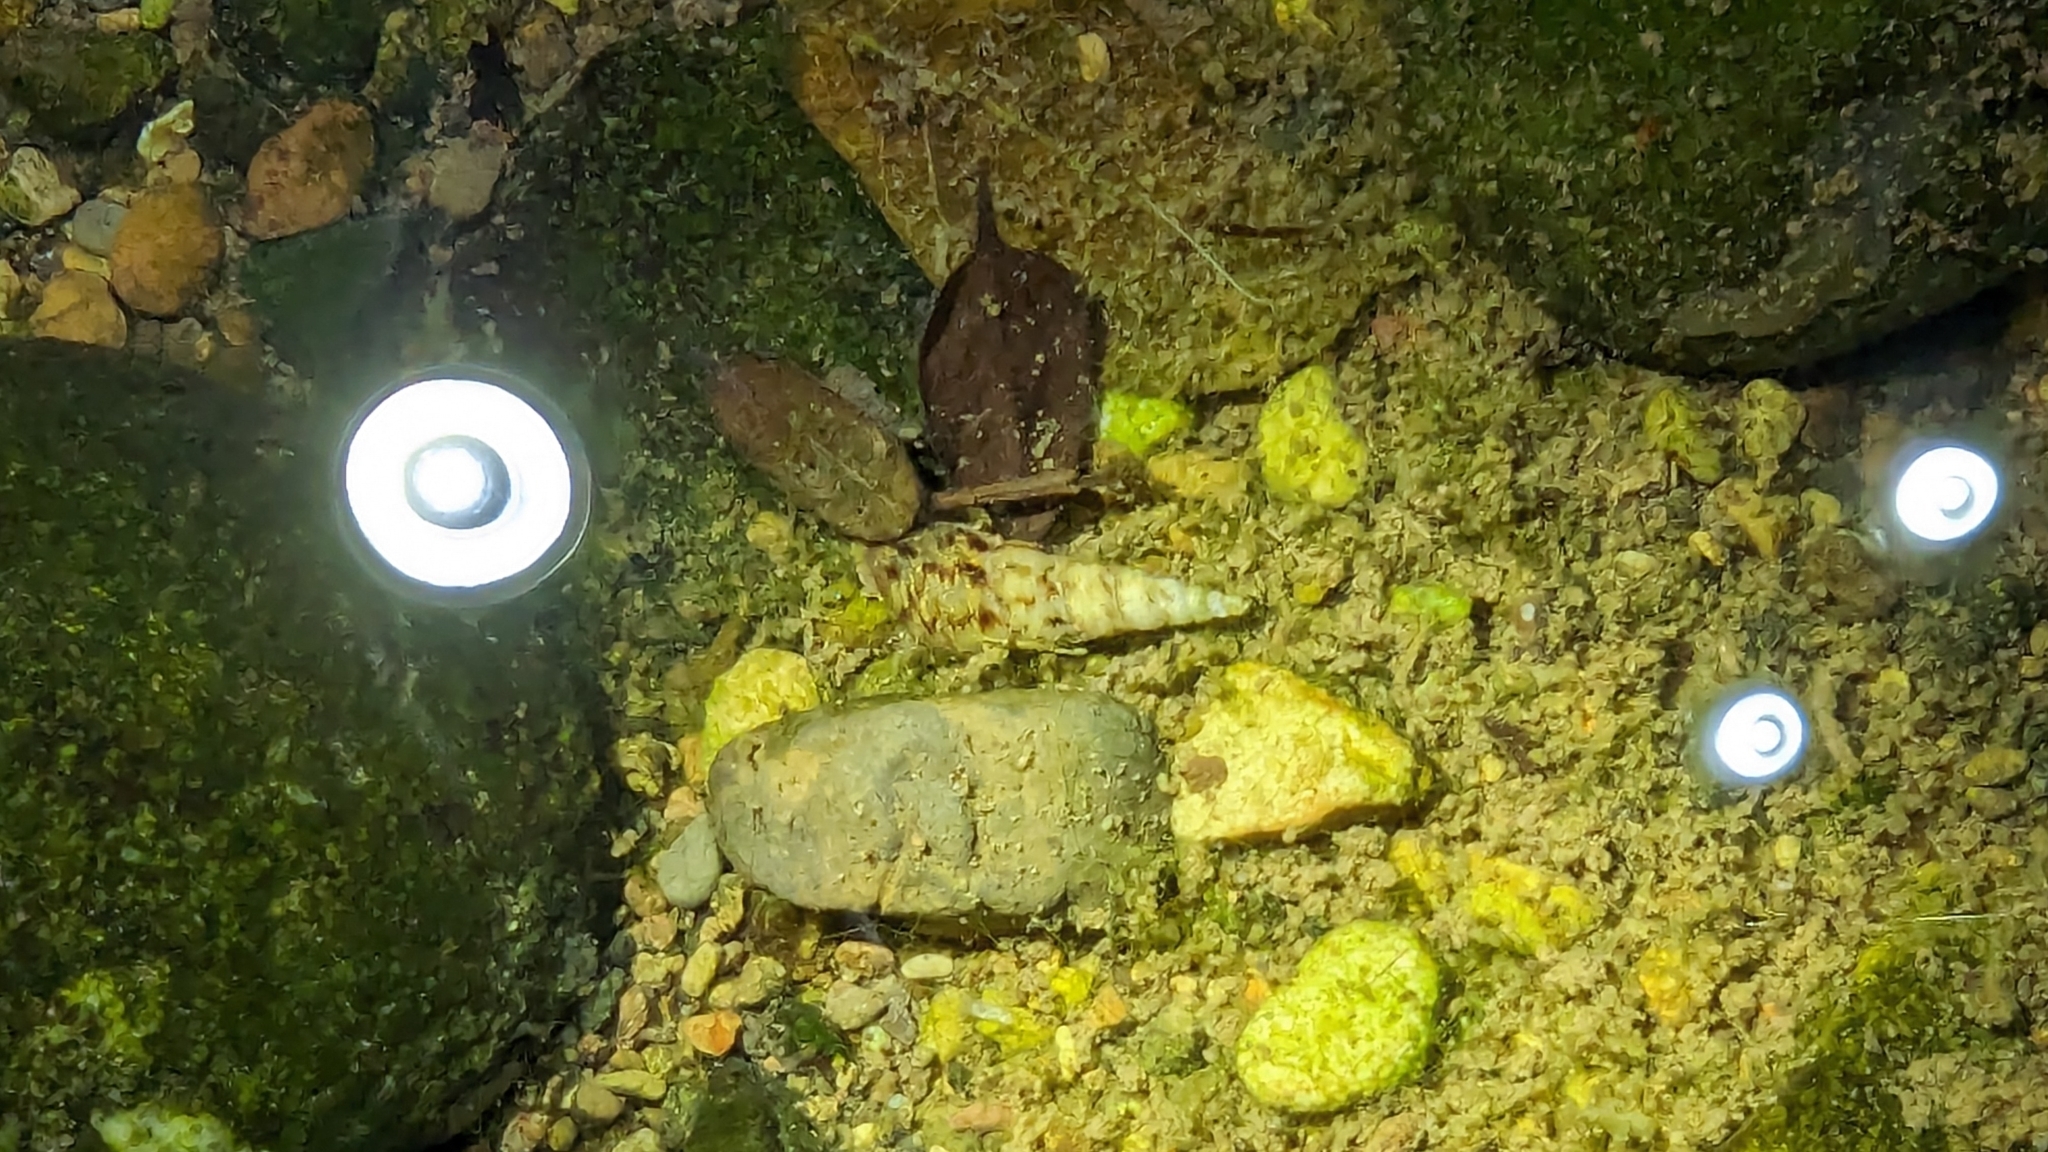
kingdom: Animalia
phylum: Mollusca
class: Gastropoda
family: Thiaridae
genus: Melanoides
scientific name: Melanoides tuberculata
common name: Red-rim melania
